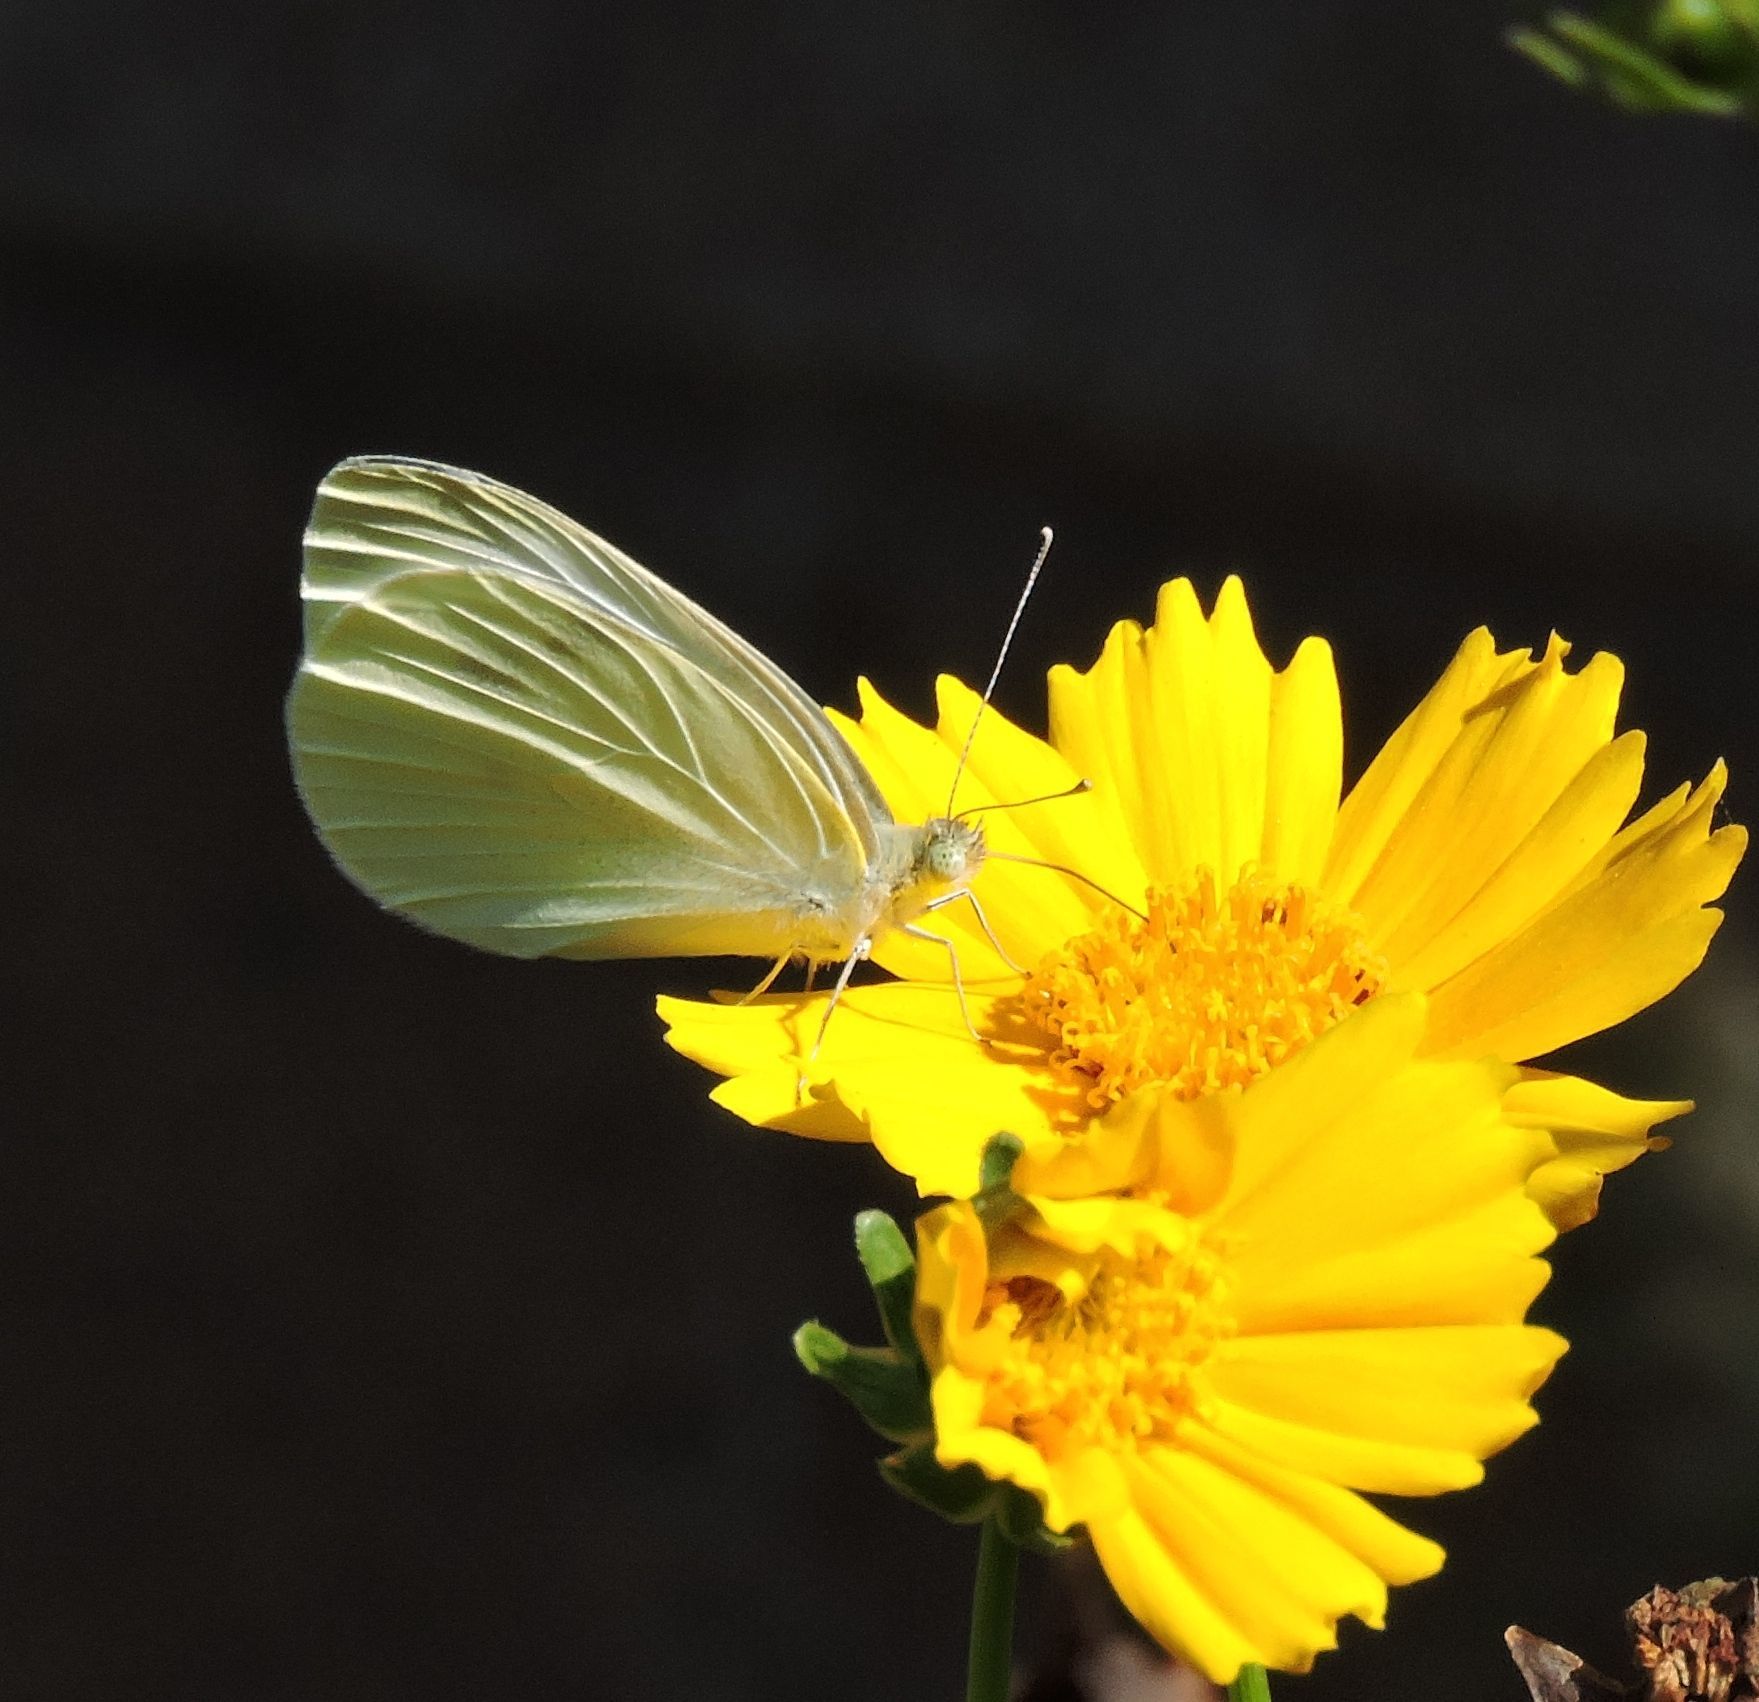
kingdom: Animalia
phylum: Arthropoda
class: Insecta
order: Lepidoptera
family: Pieridae
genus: Pieris
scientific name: Pieris rapae
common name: Small white
